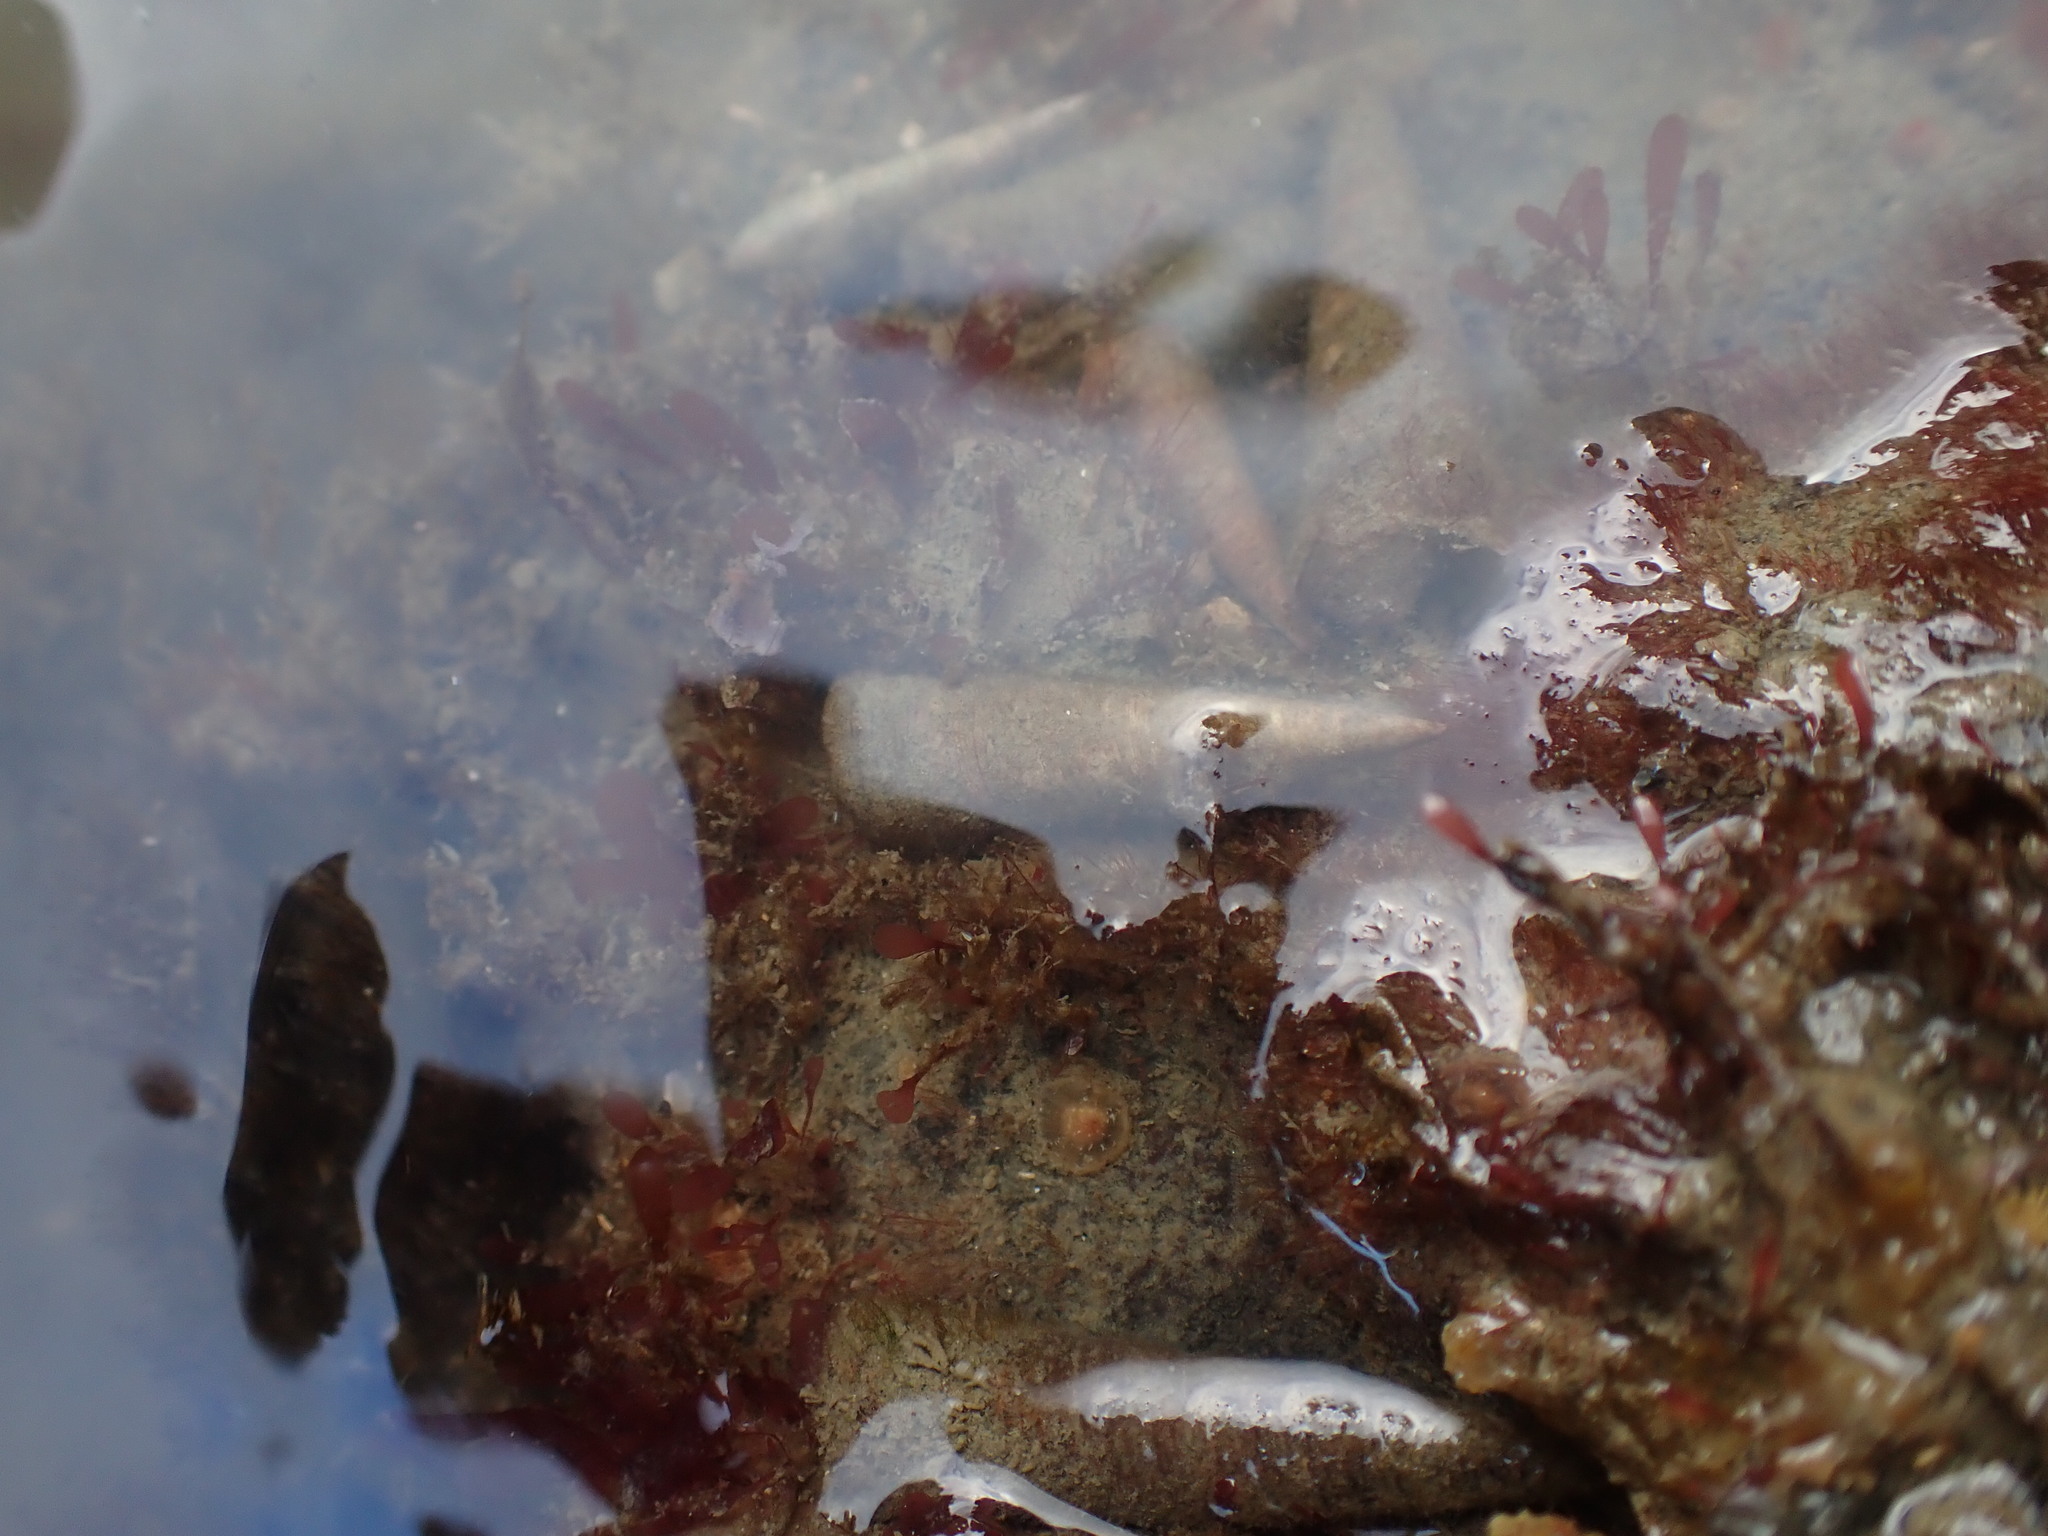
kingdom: Animalia
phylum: Mollusca
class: Gastropoda
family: Turritellidae
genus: Maoricolpus
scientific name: Maoricolpus roseus
